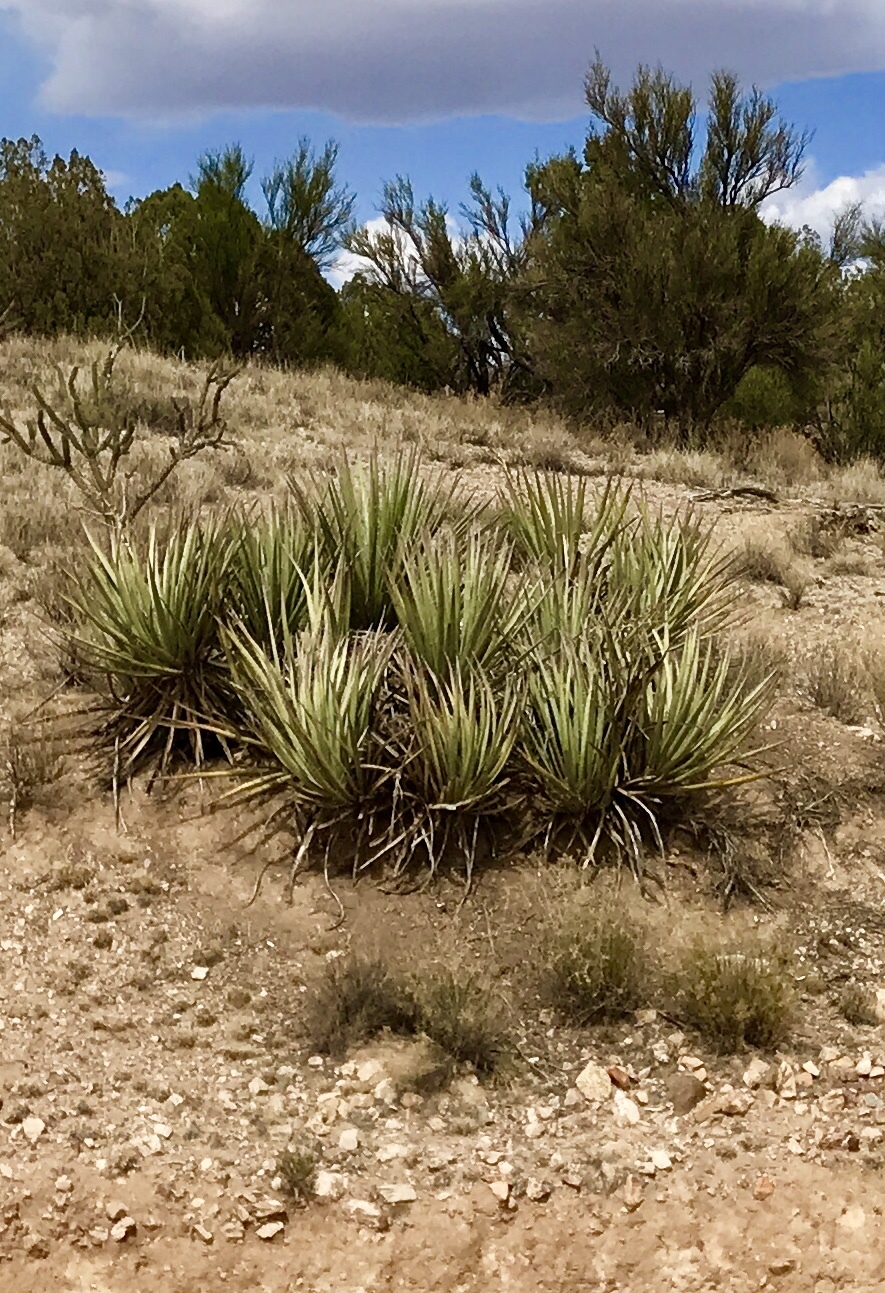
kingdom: Plantae
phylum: Tracheophyta
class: Liliopsida
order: Asparagales
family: Asparagaceae
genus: Yucca
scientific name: Yucca baccata
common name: Banana yucca
